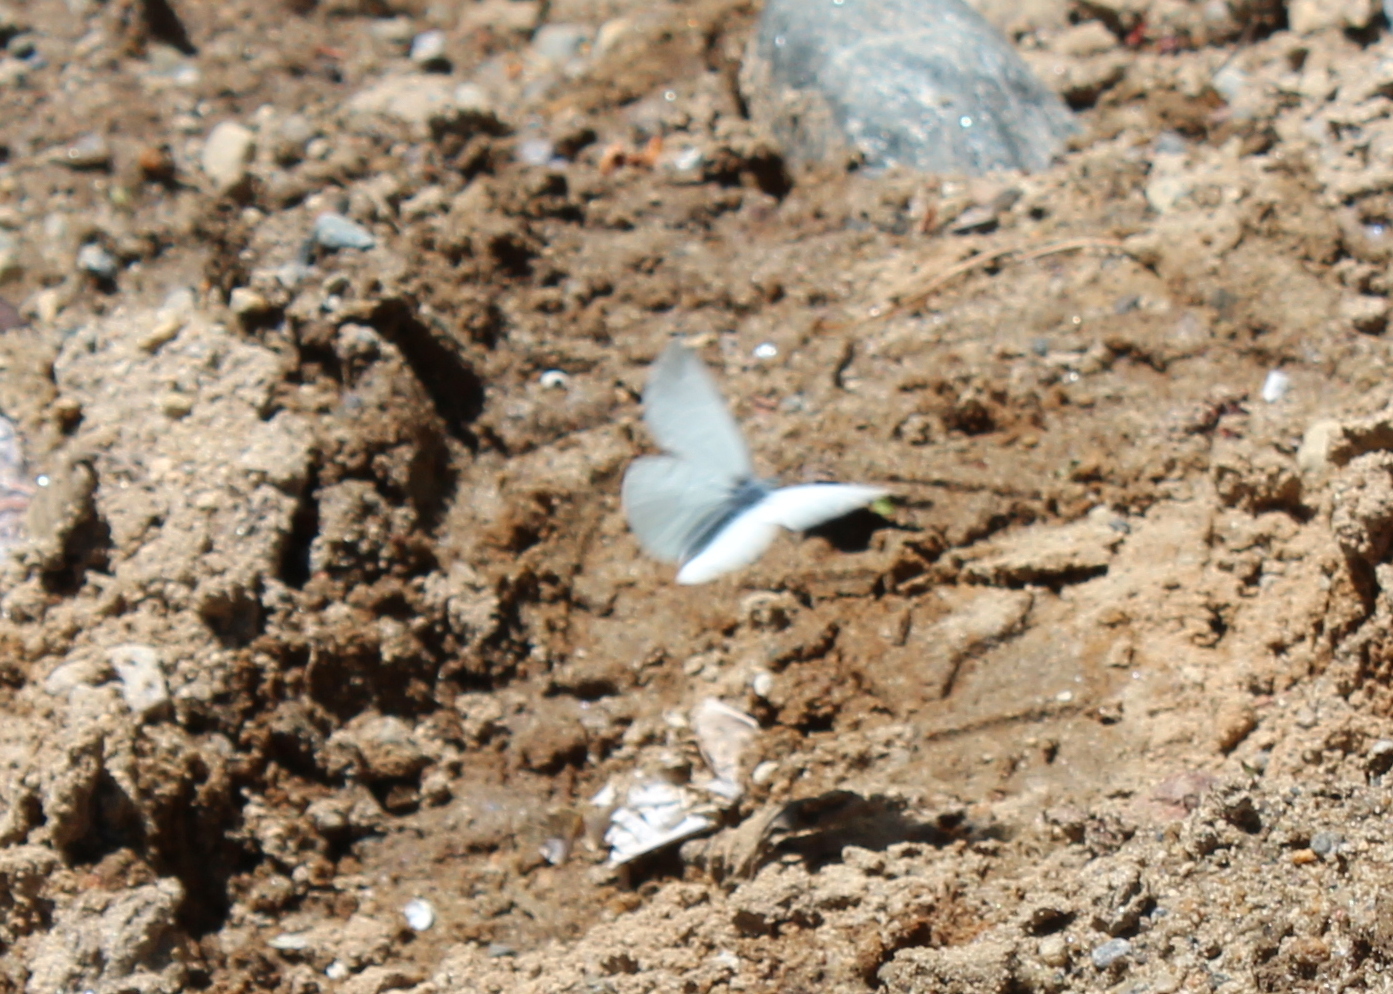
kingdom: Animalia
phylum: Arthropoda
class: Insecta
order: Lepidoptera
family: Pieridae
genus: Pieris
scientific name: Pieris oleracea
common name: Mustard white
